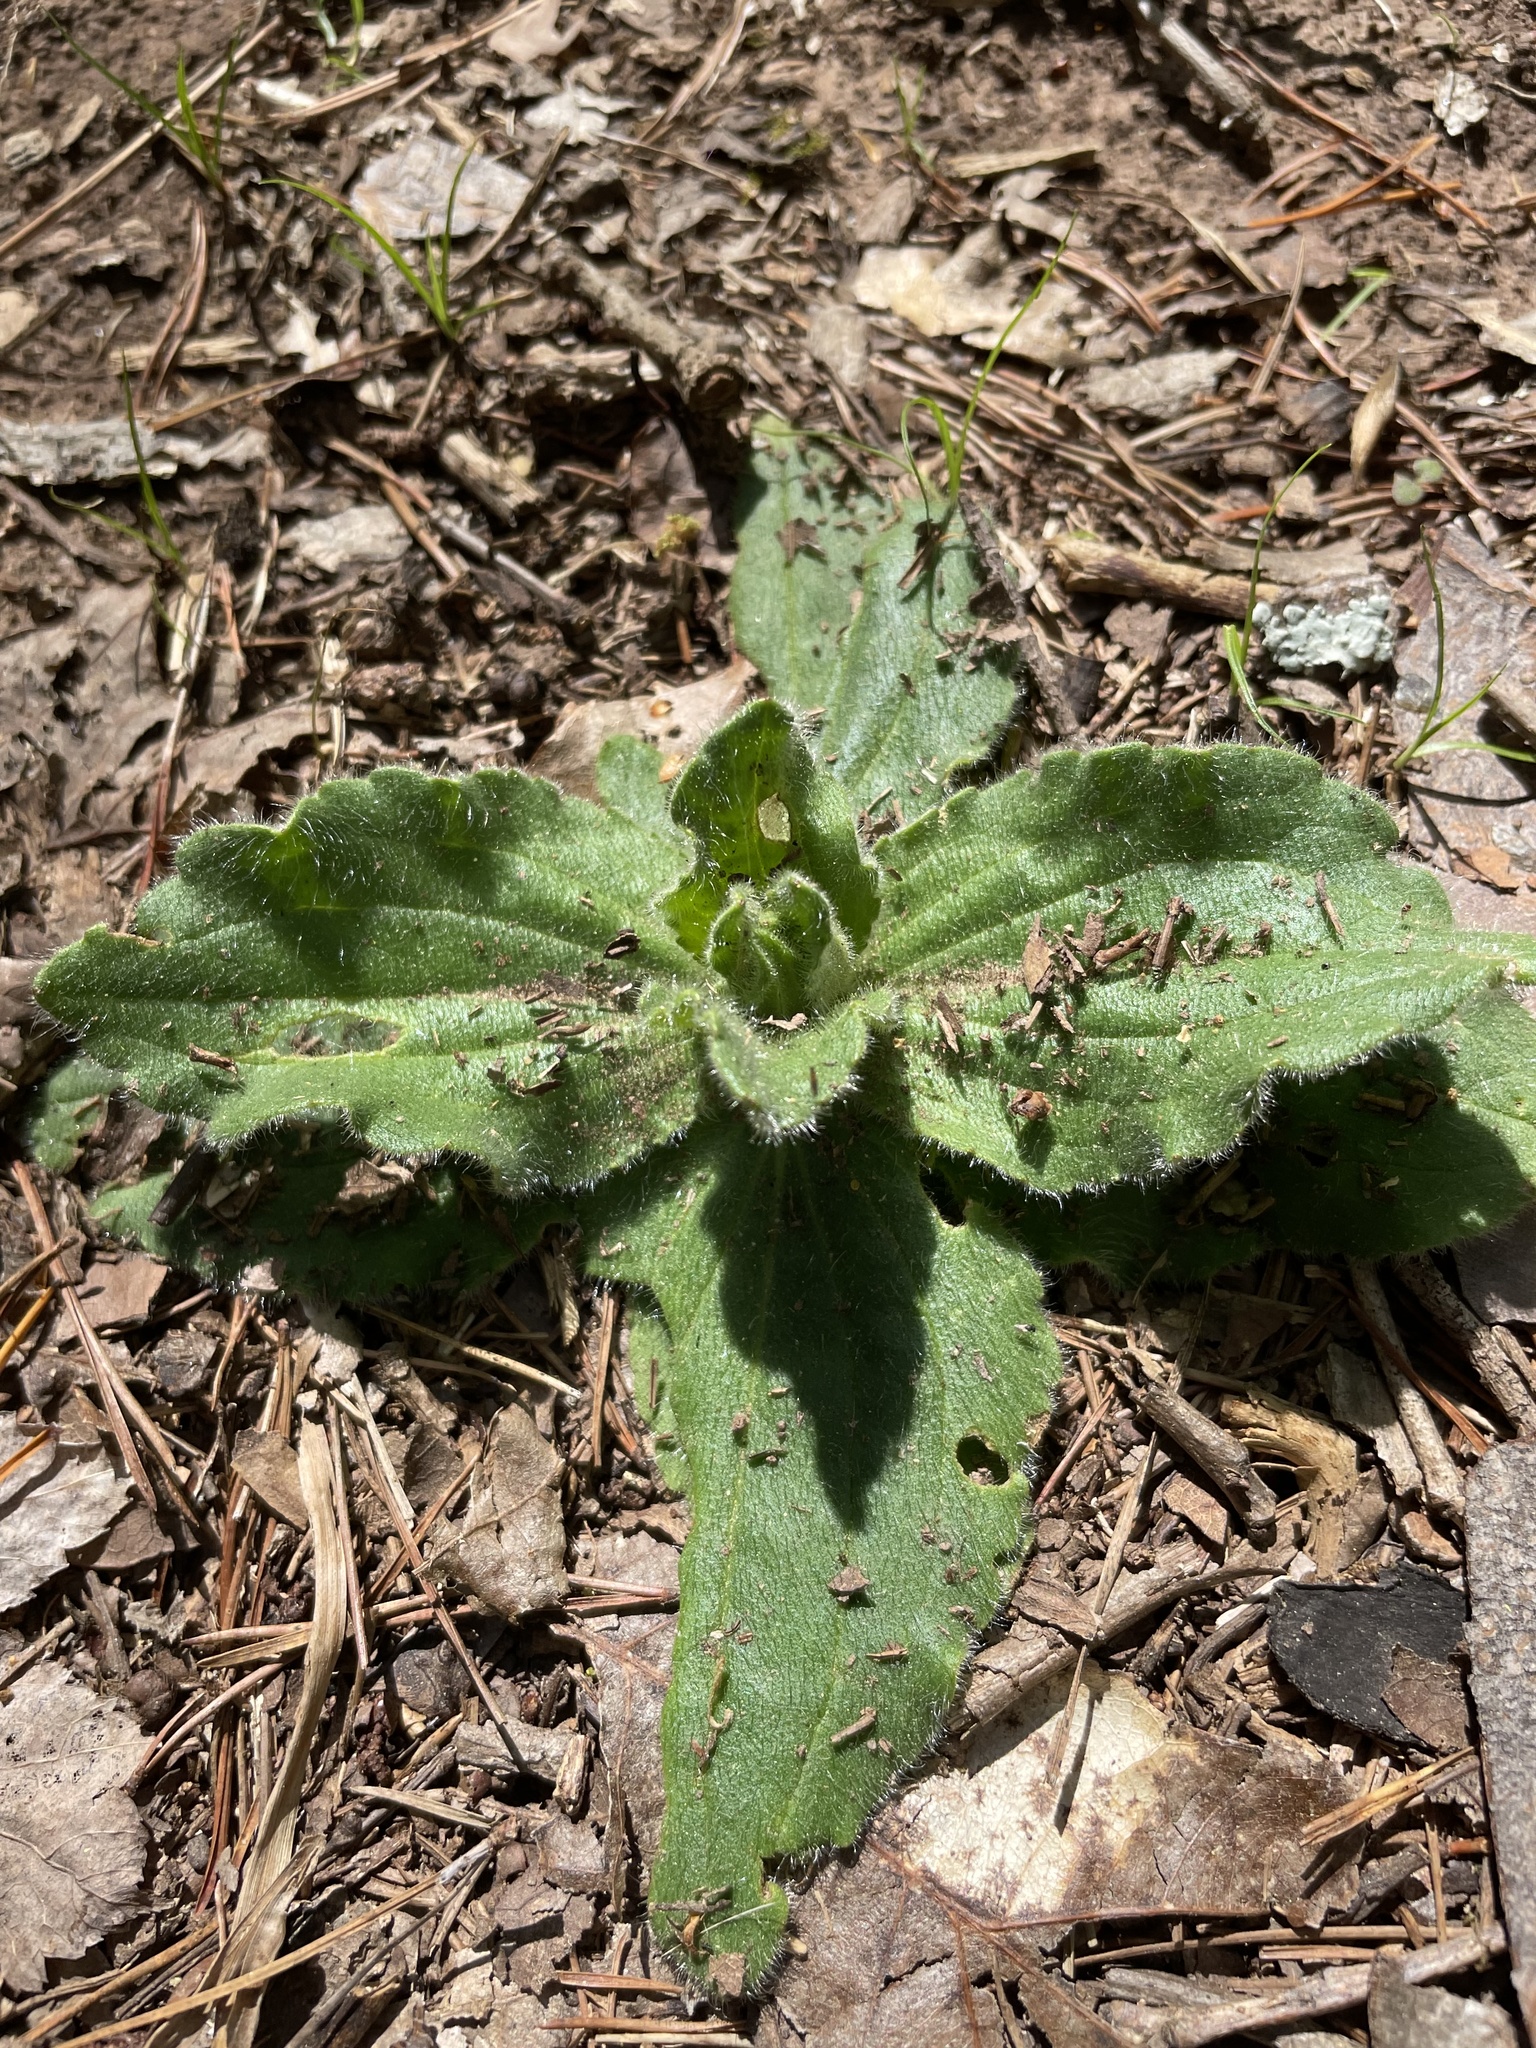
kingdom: Plantae
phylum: Tracheophyta
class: Magnoliopsida
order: Asterales
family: Asteraceae
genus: Arnica
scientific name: Arnica acaulis
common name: Common leopardbane
